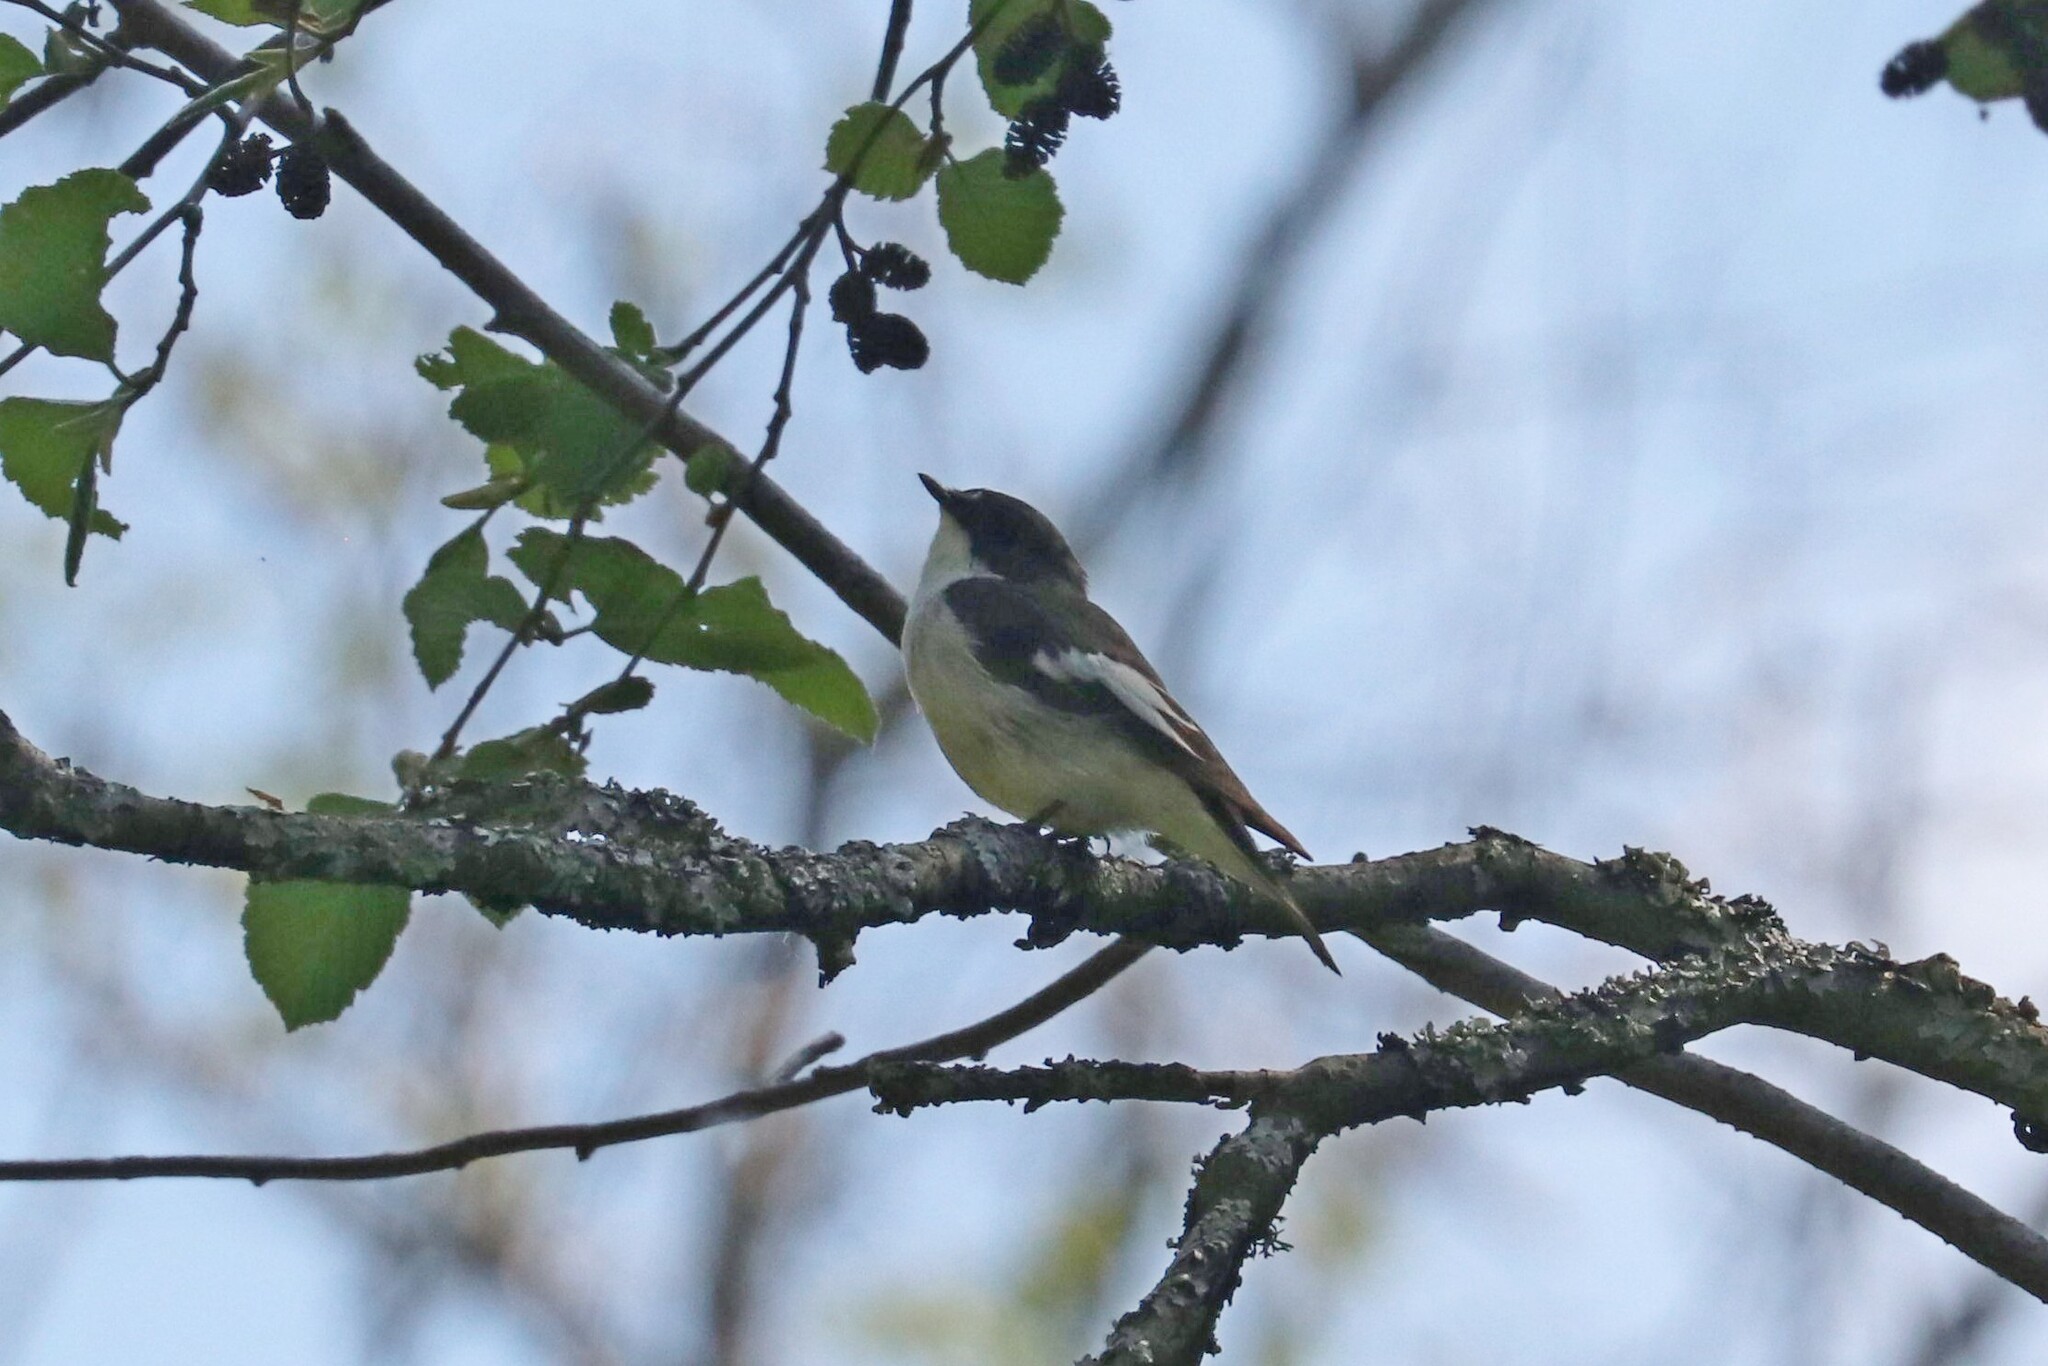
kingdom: Animalia
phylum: Chordata
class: Aves
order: Passeriformes
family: Muscicapidae
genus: Ficedula
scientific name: Ficedula hypoleuca
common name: European pied flycatcher
